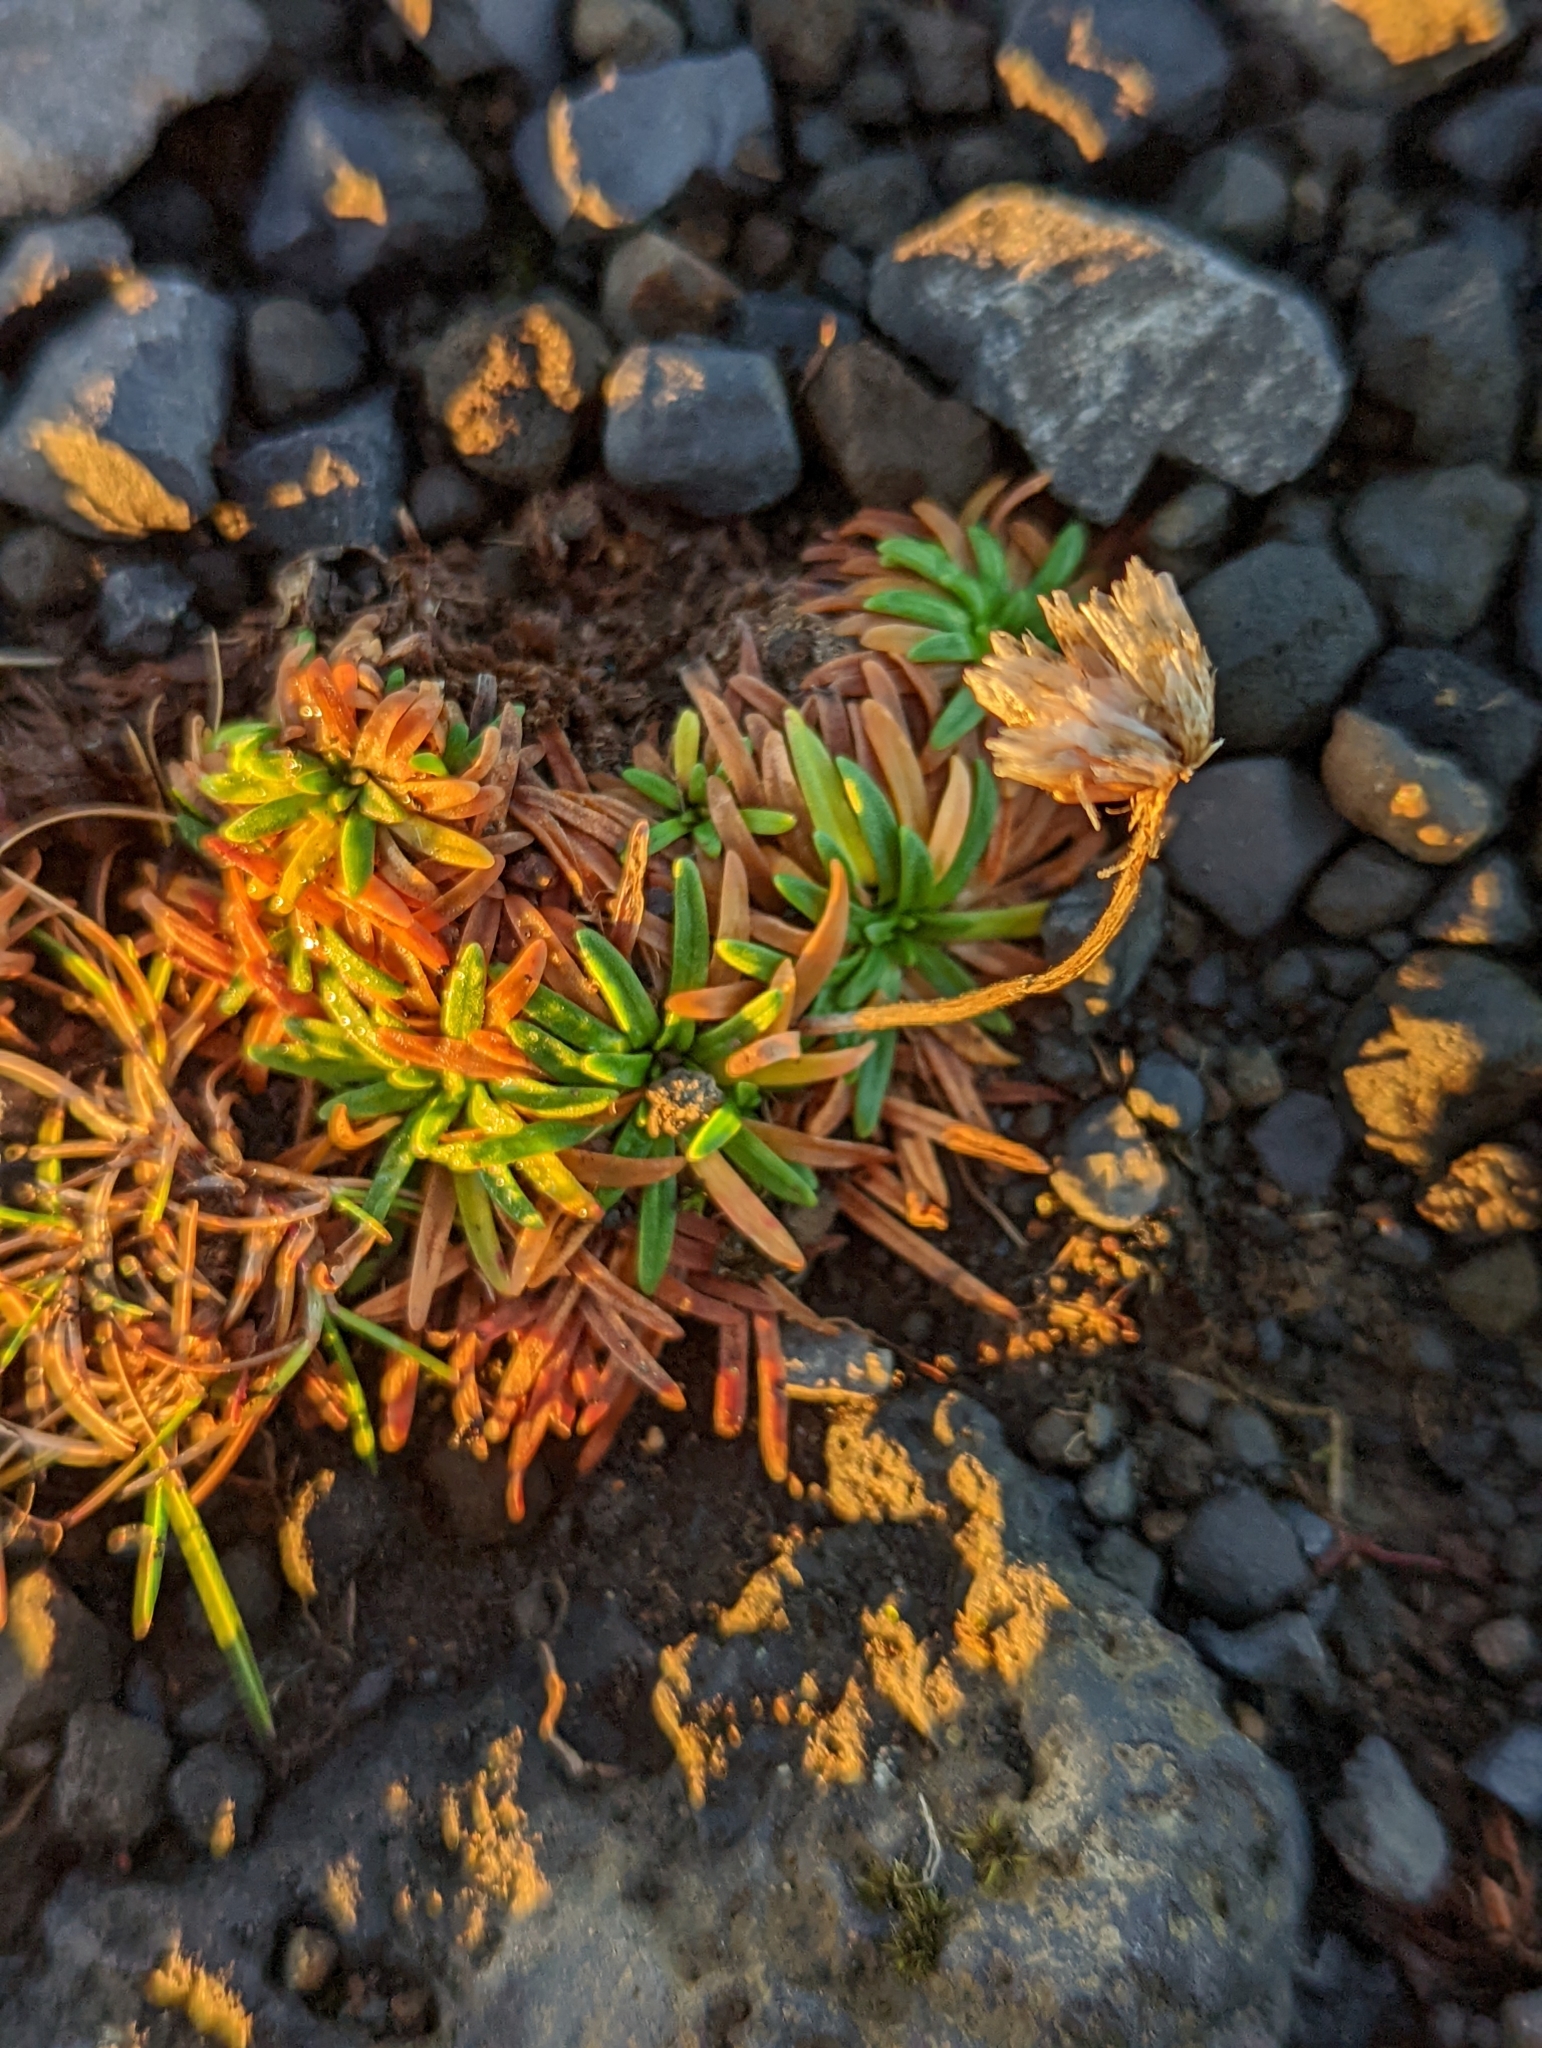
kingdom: Plantae
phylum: Tracheophyta
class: Magnoliopsida
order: Caryophyllales
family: Plumbaginaceae
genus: Armeria
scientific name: Armeria maritima
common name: Thrift
